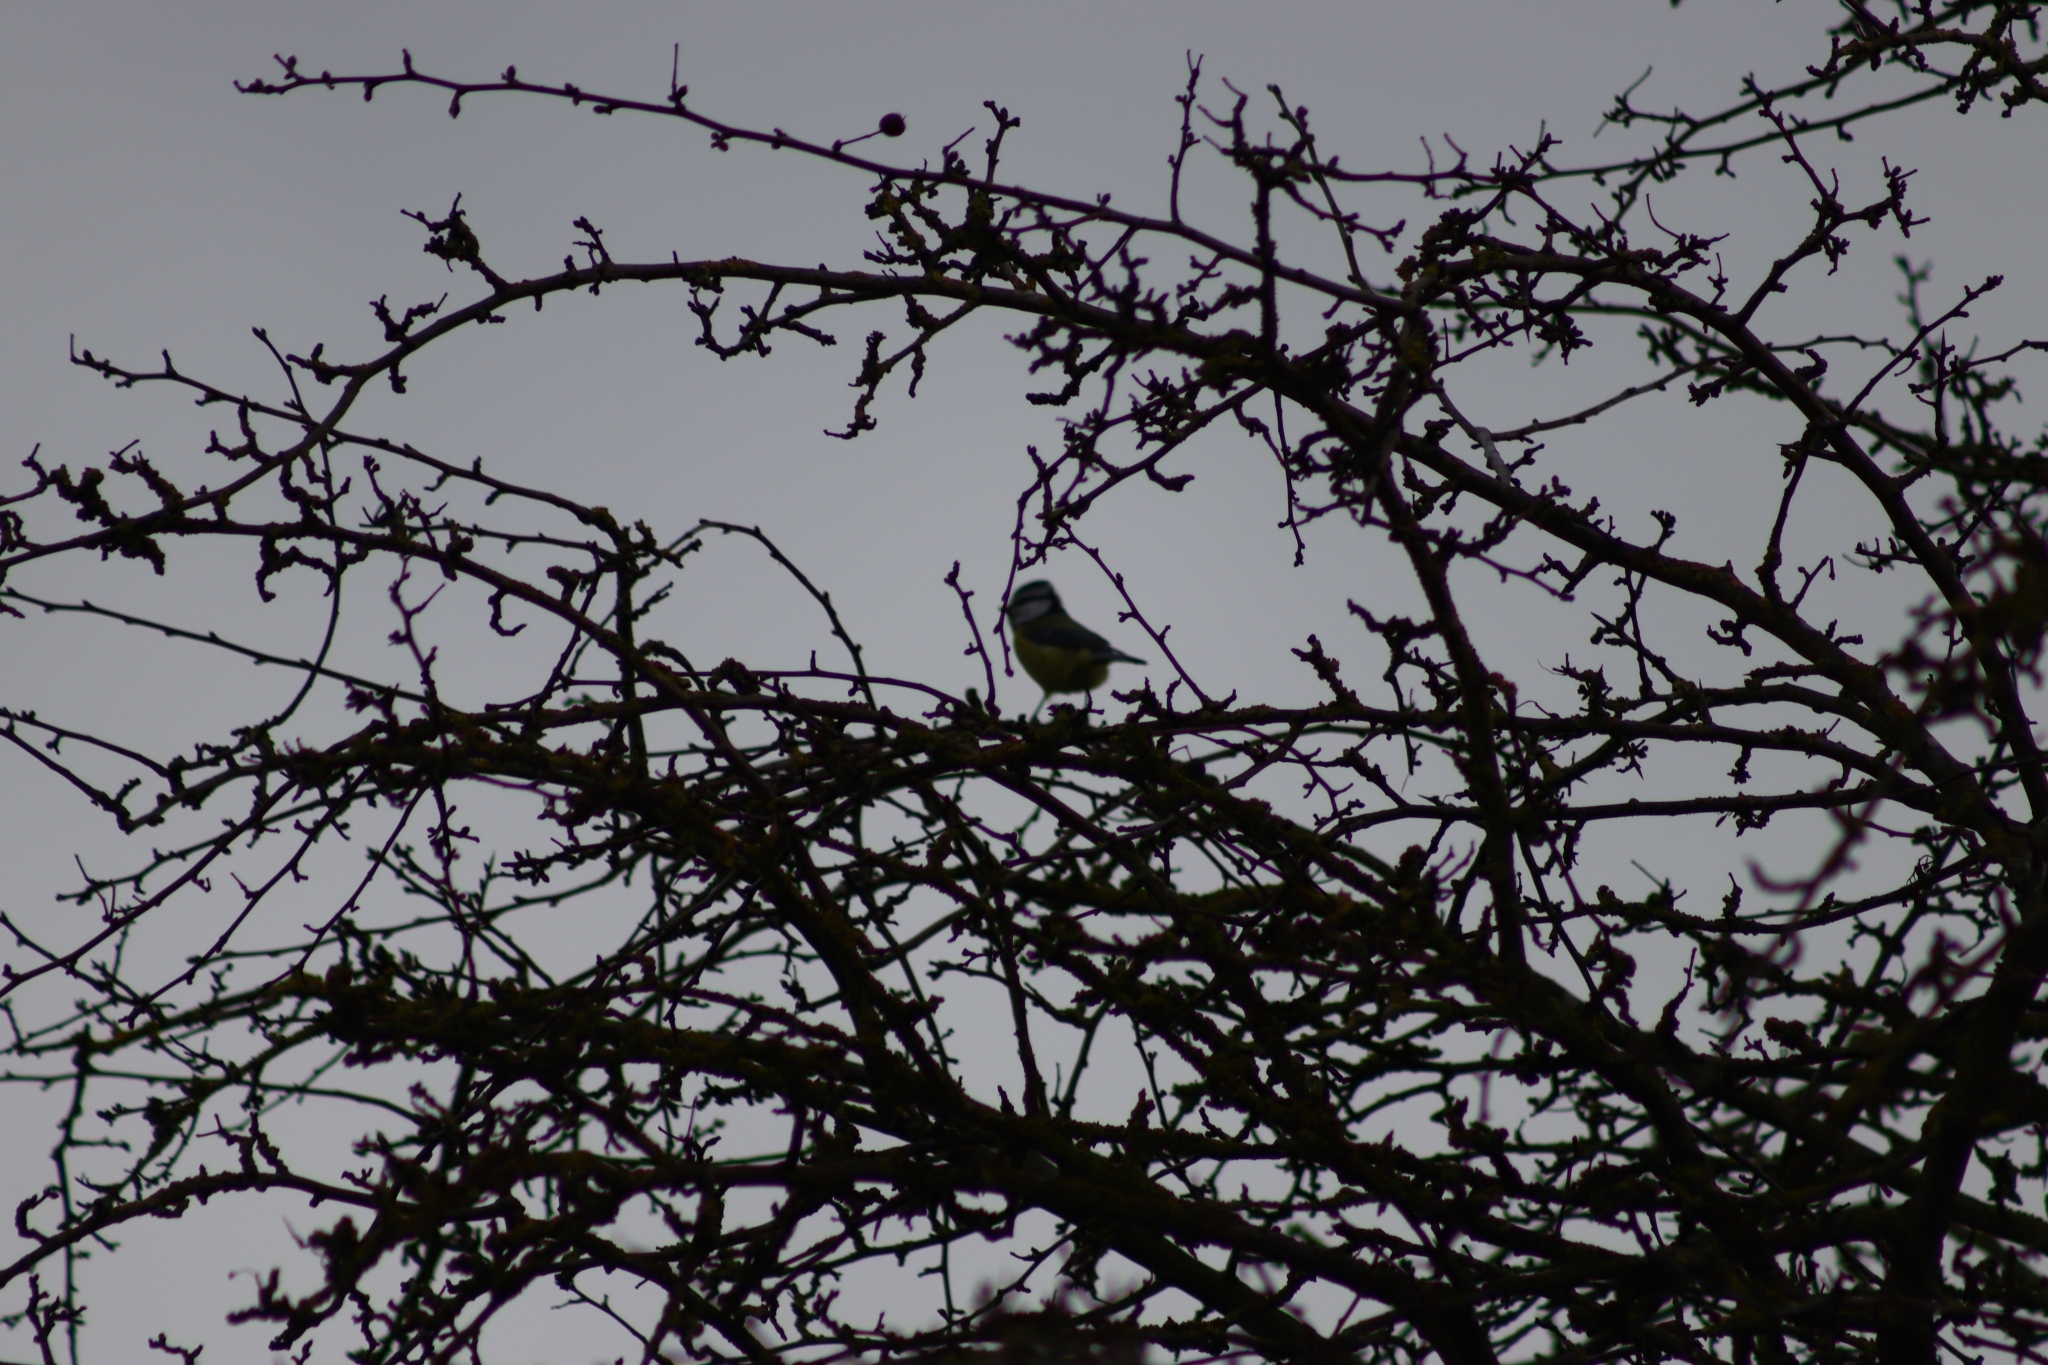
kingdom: Animalia
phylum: Chordata
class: Aves
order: Passeriformes
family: Paridae
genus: Cyanistes
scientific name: Cyanistes caeruleus
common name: Eurasian blue tit
